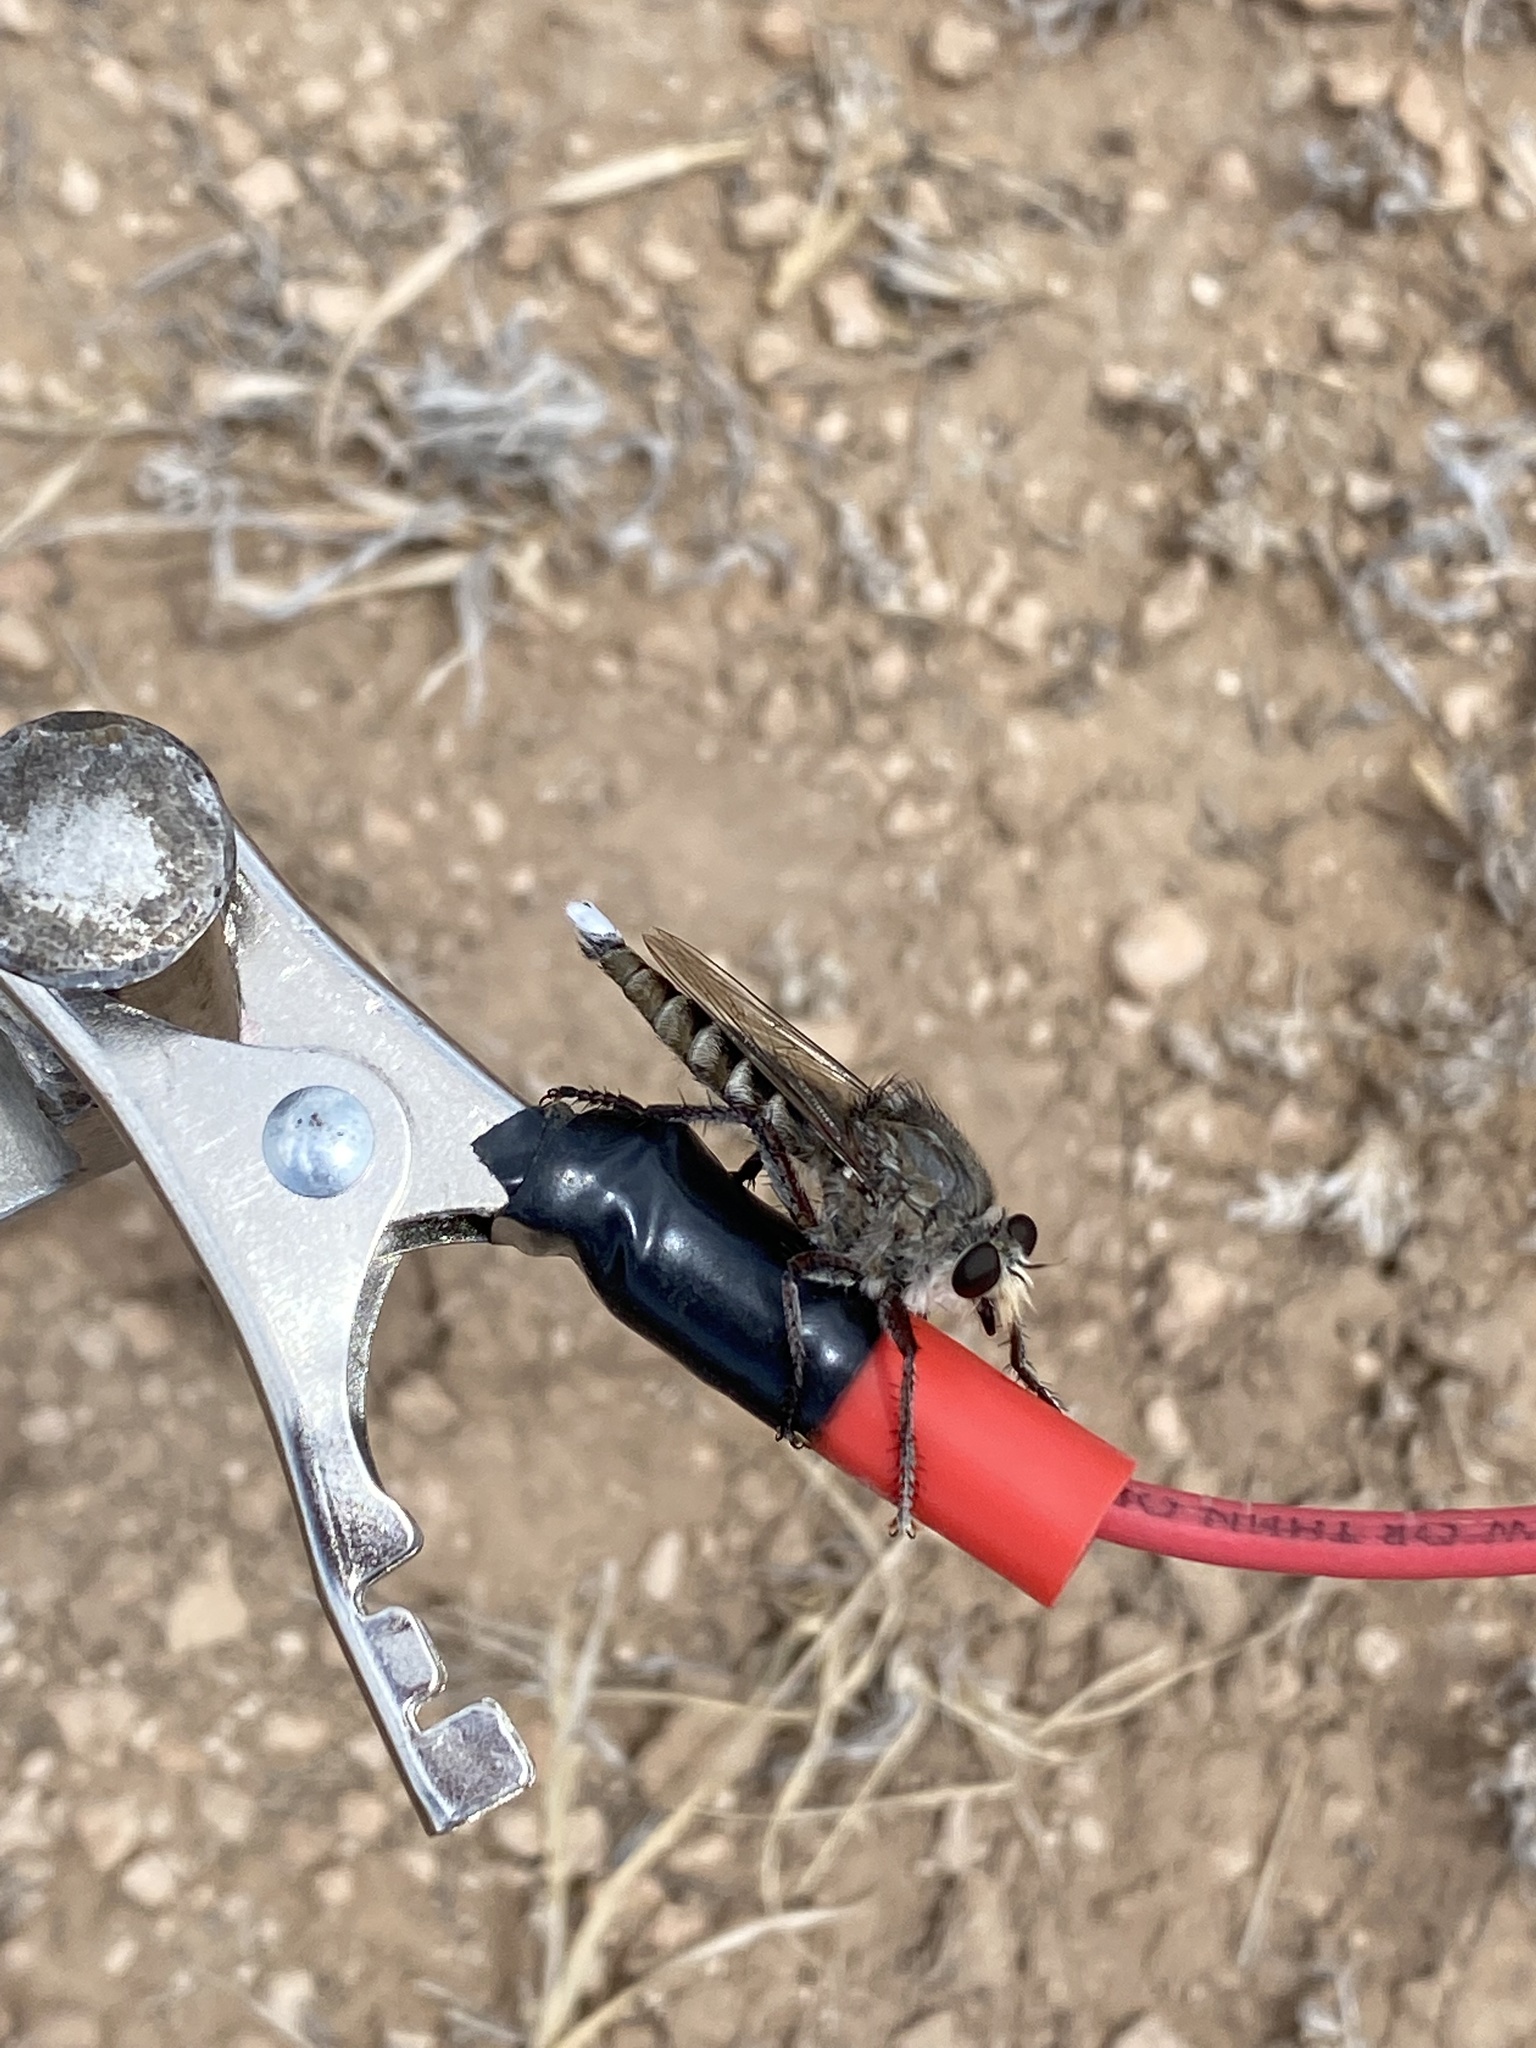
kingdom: Animalia
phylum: Arthropoda
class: Insecta
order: Diptera
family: Asilidae
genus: Promachus
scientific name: Promachus albifacies
